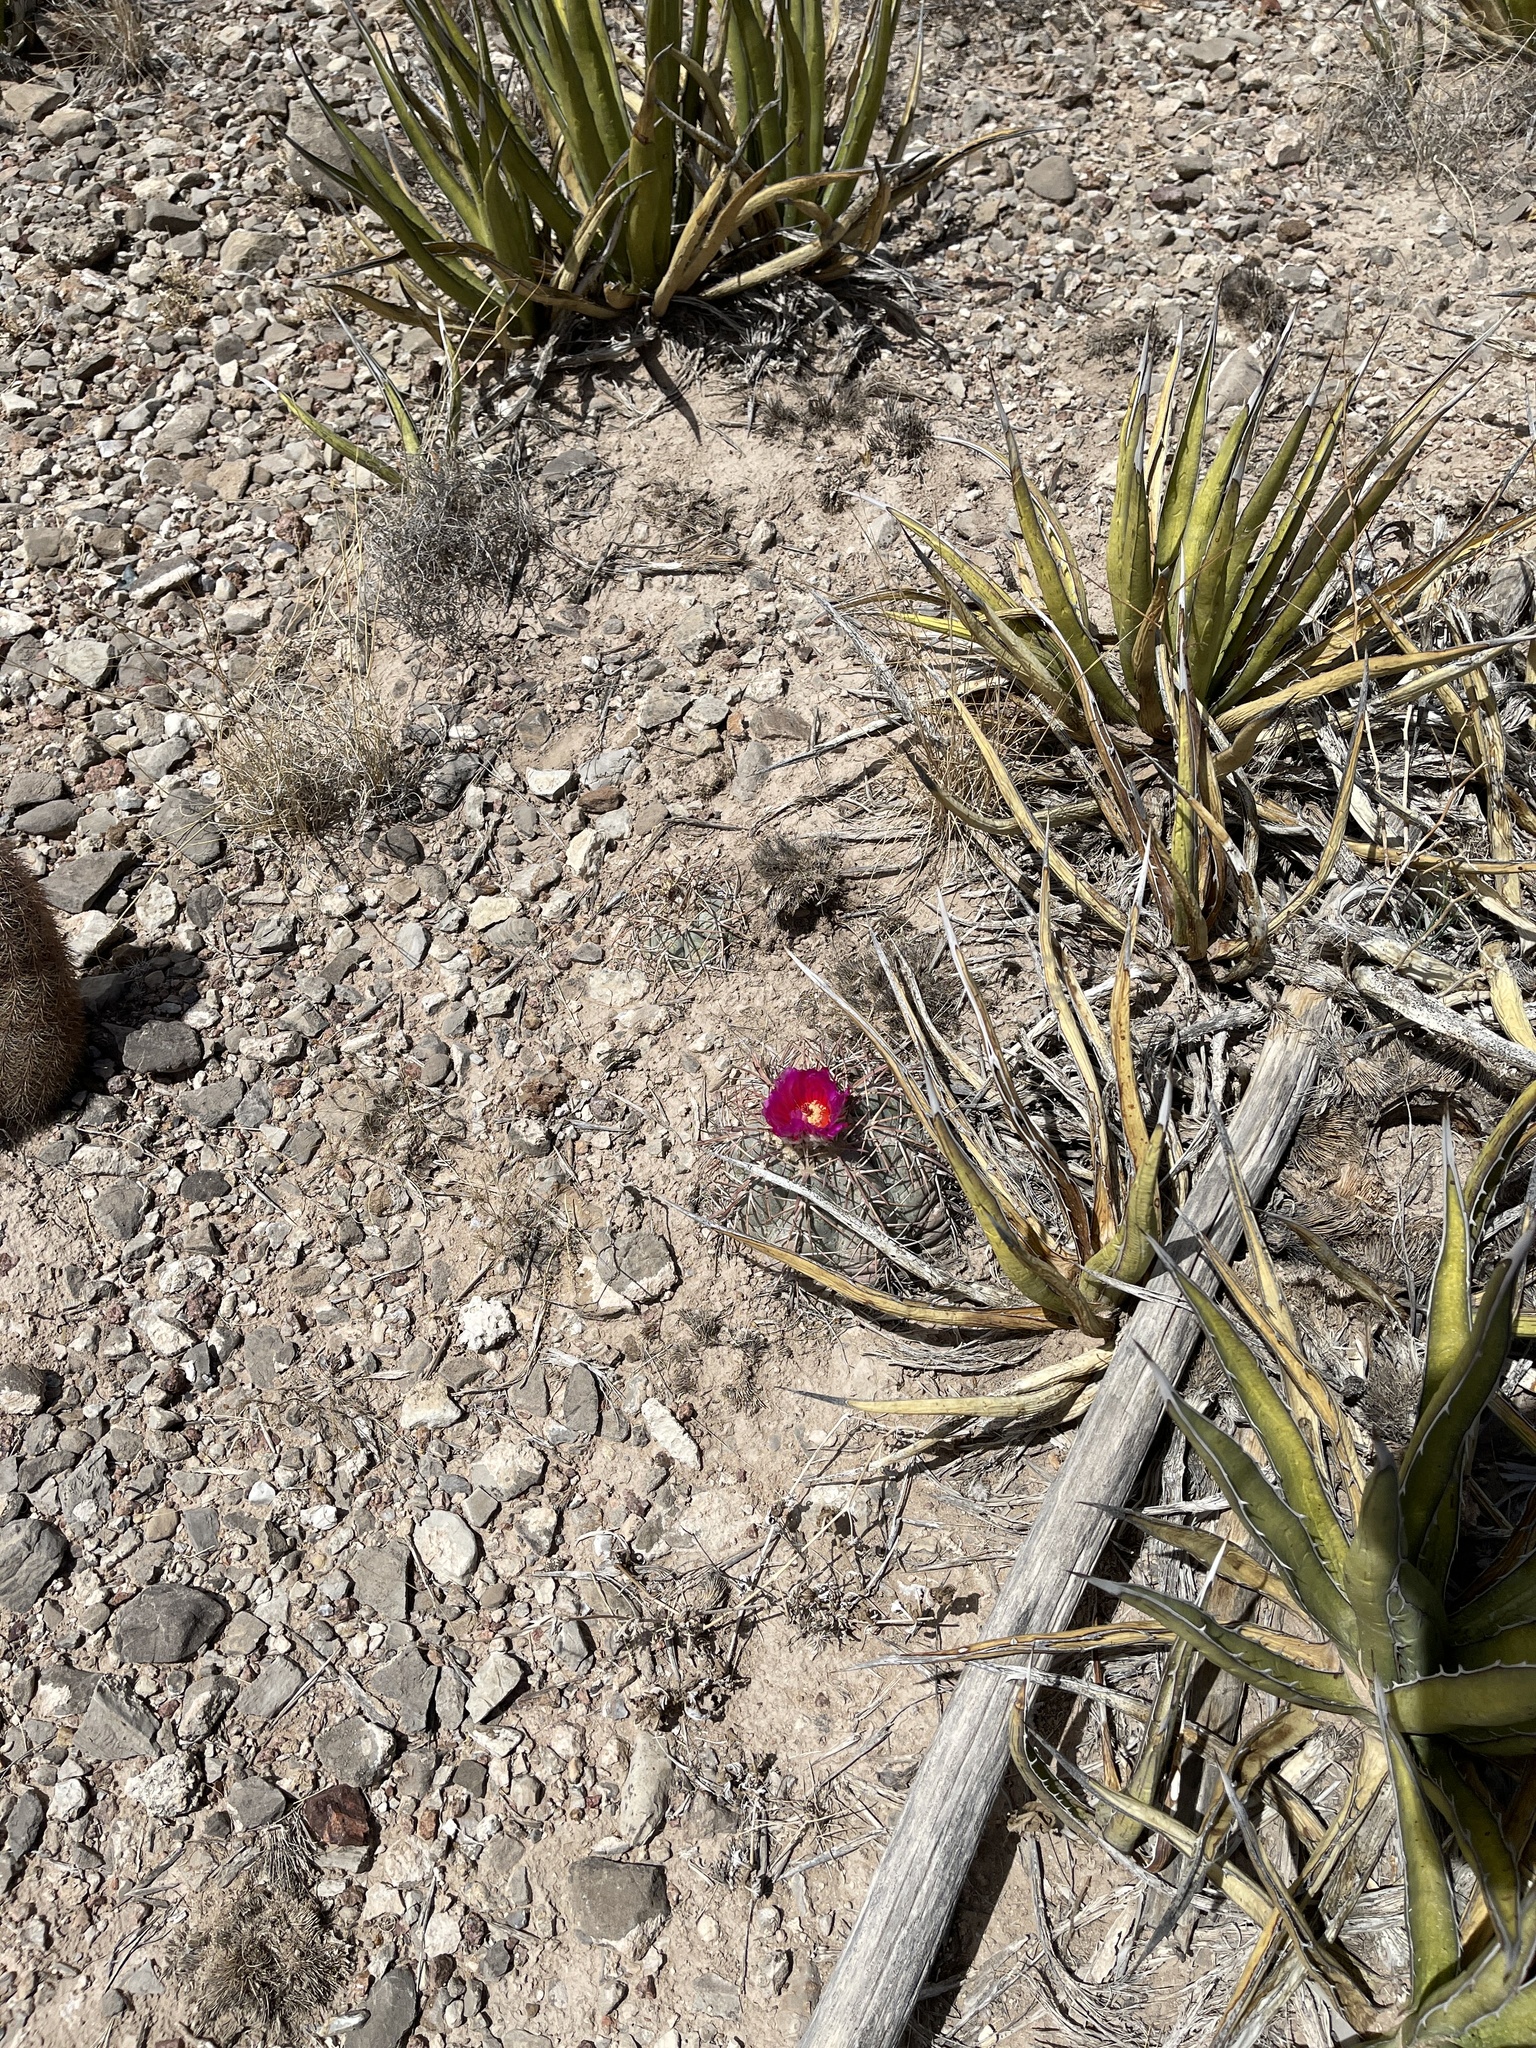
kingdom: Plantae
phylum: Tracheophyta
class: Magnoliopsida
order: Caryophyllales
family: Cactaceae
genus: Echinocactus
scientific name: Echinocactus horizonthalonius
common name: Devilshead
